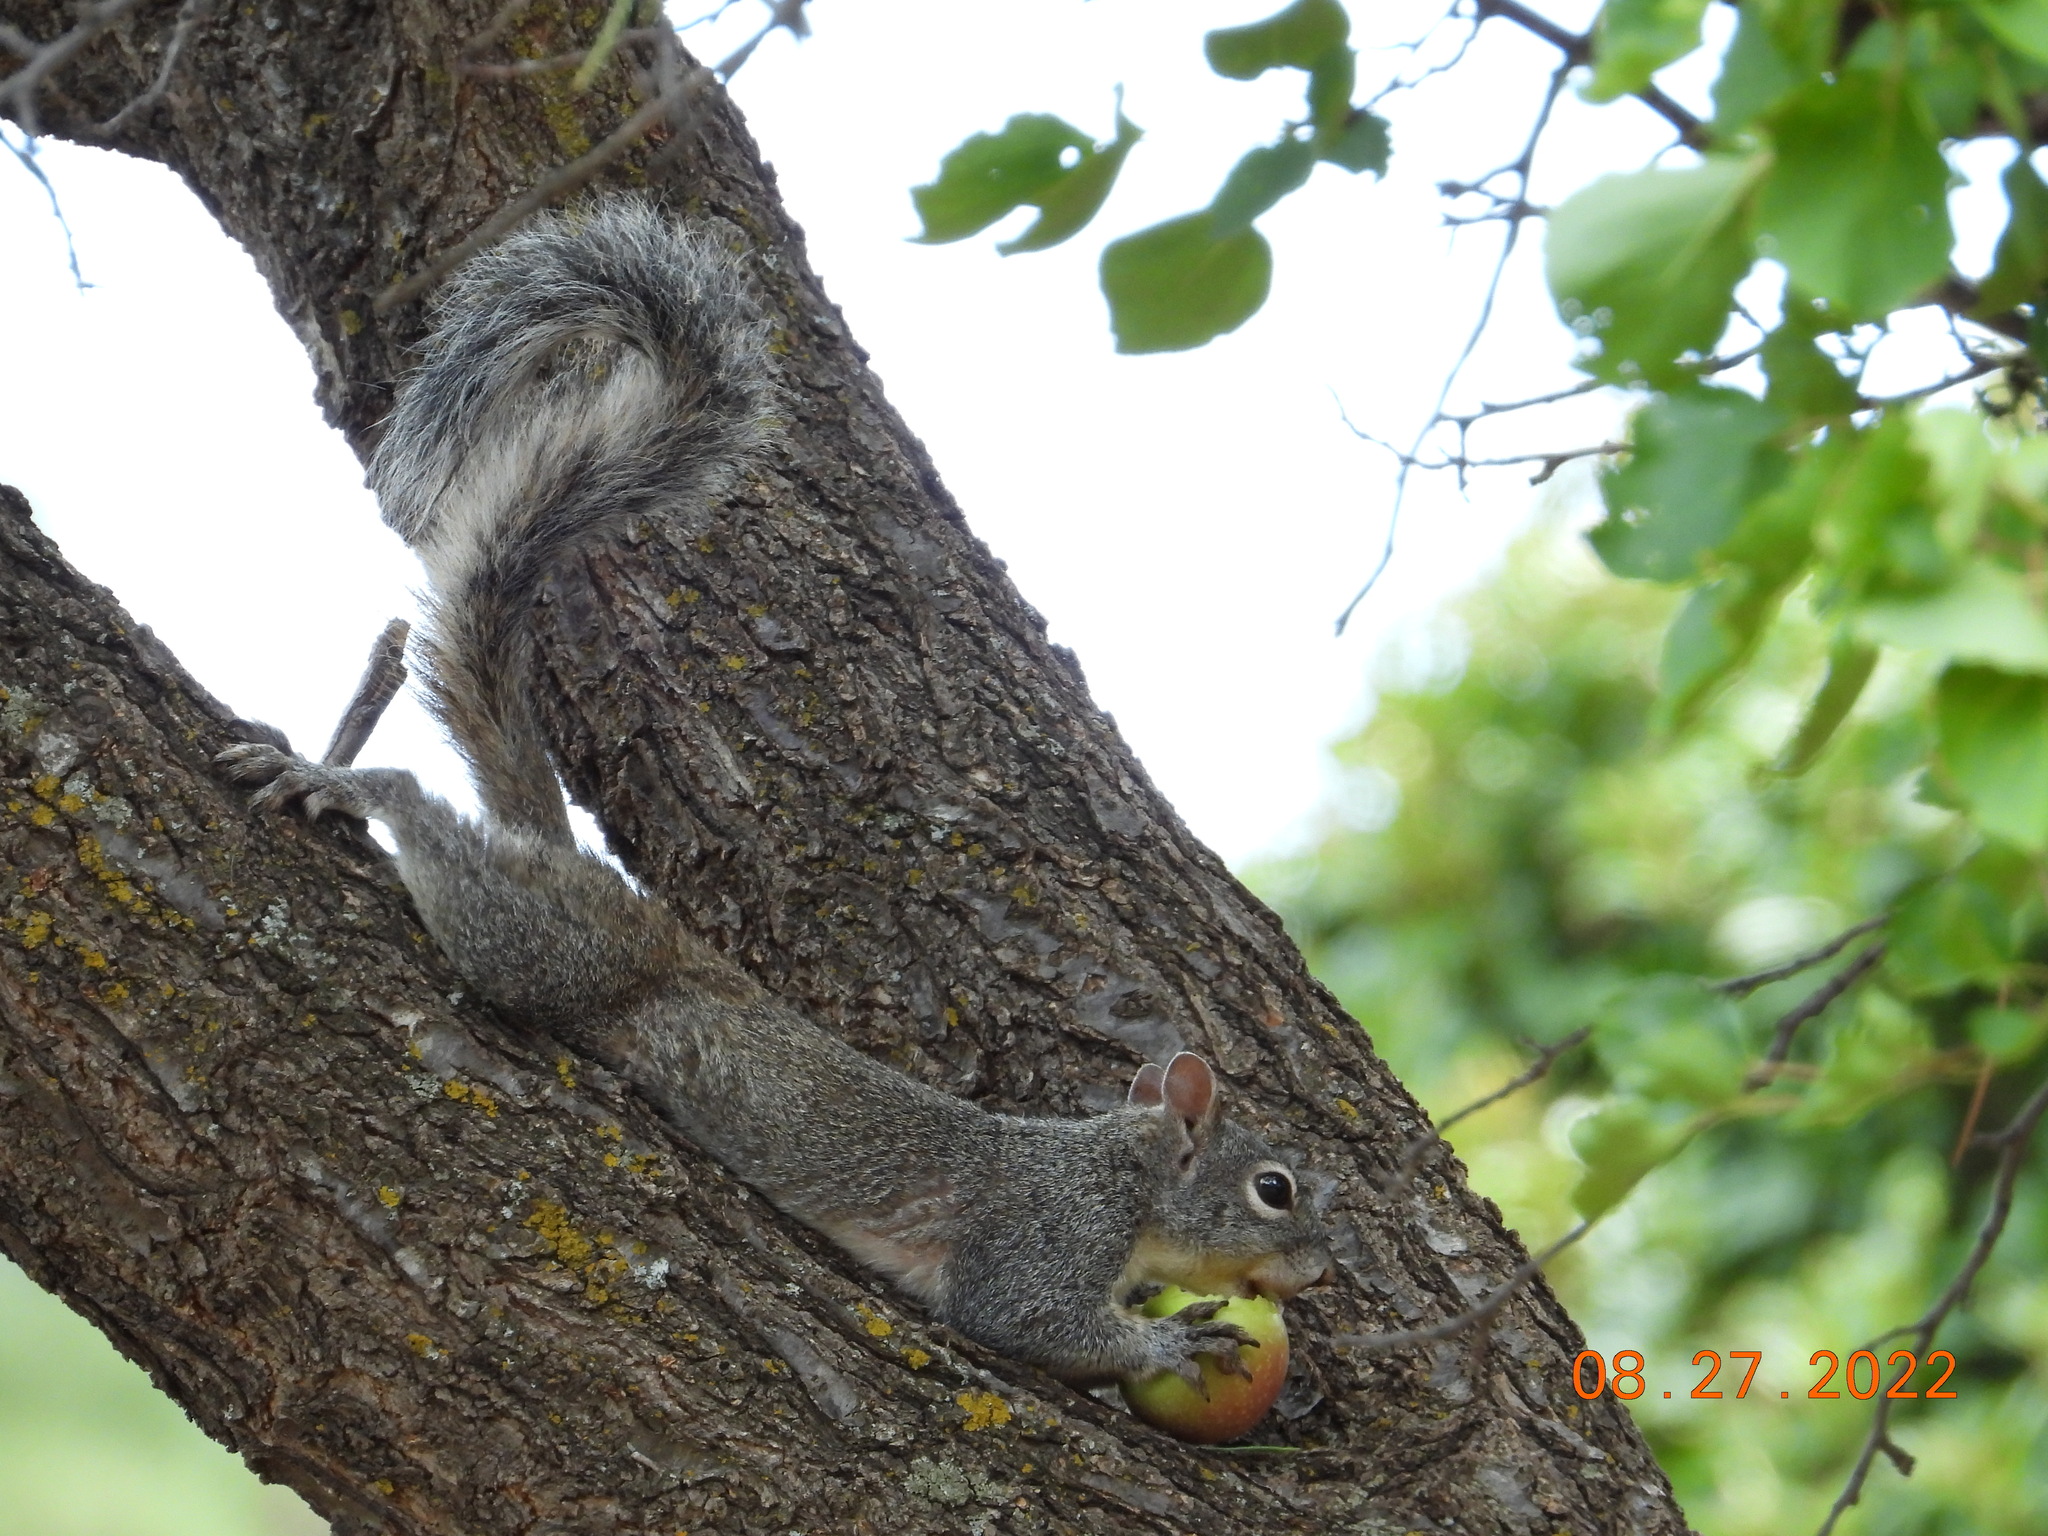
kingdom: Animalia
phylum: Chordata
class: Mammalia
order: Rodentia
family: Sciuridae
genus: Sciurus
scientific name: Sciurus arizonensis
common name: Arizona gray squirrel
